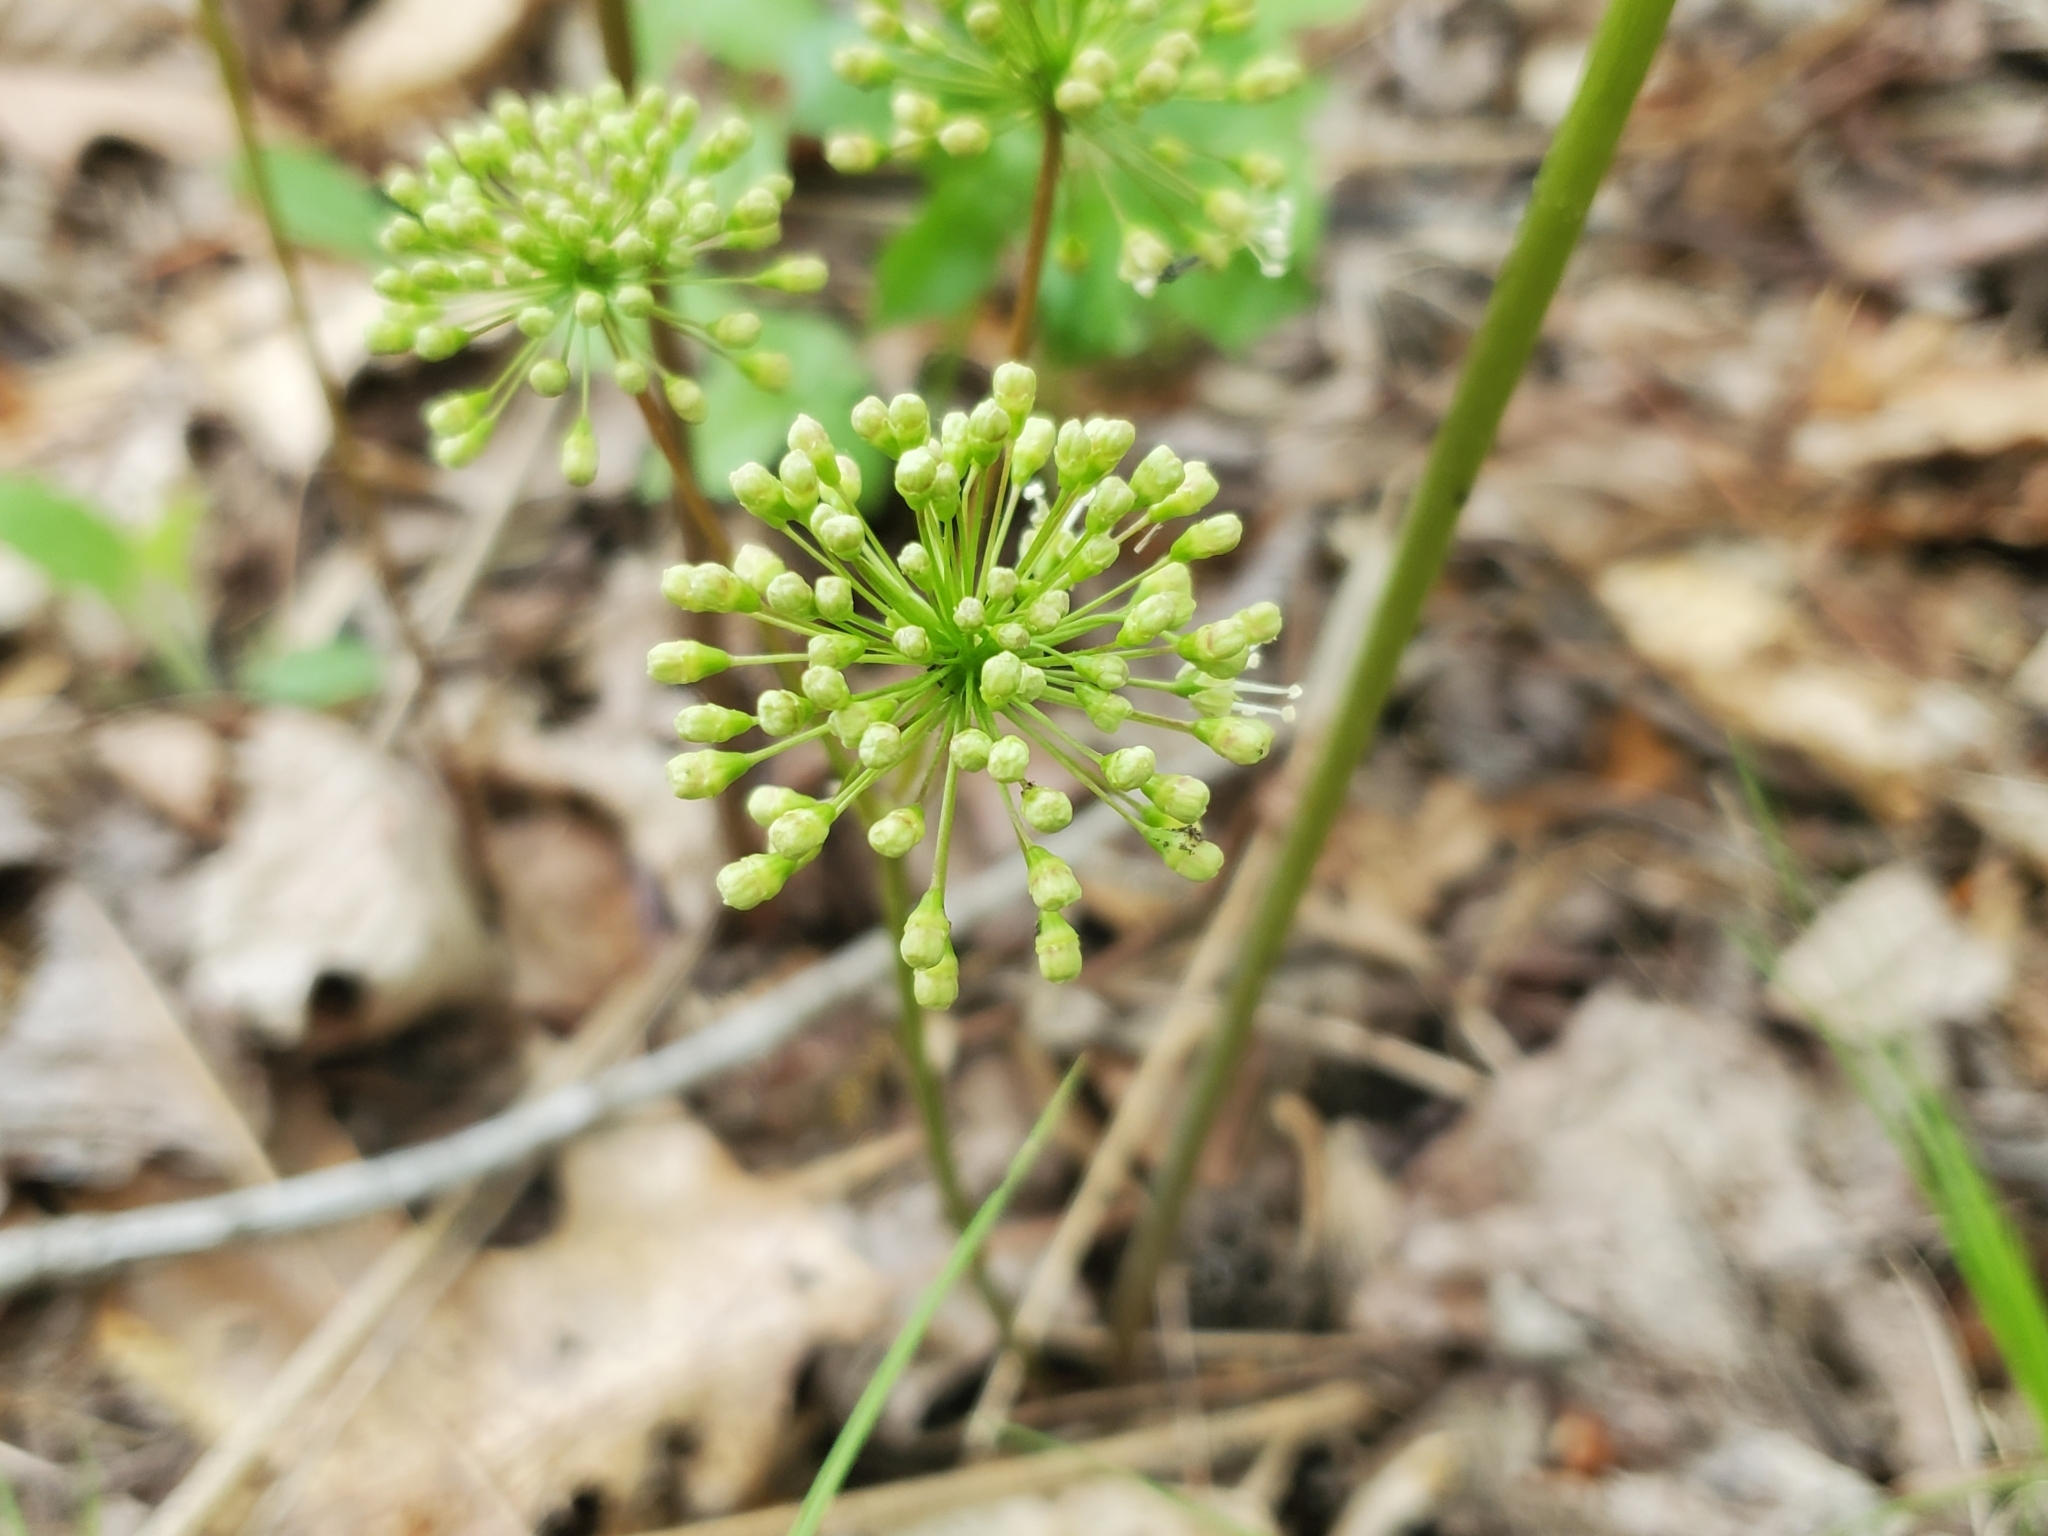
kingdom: Plantae
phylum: Tracheophyta
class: Magnoliopsida
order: Apiales
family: Araliaceae
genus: Aralia
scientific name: Aralia nudicaulis
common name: Wild sarsaparilla
